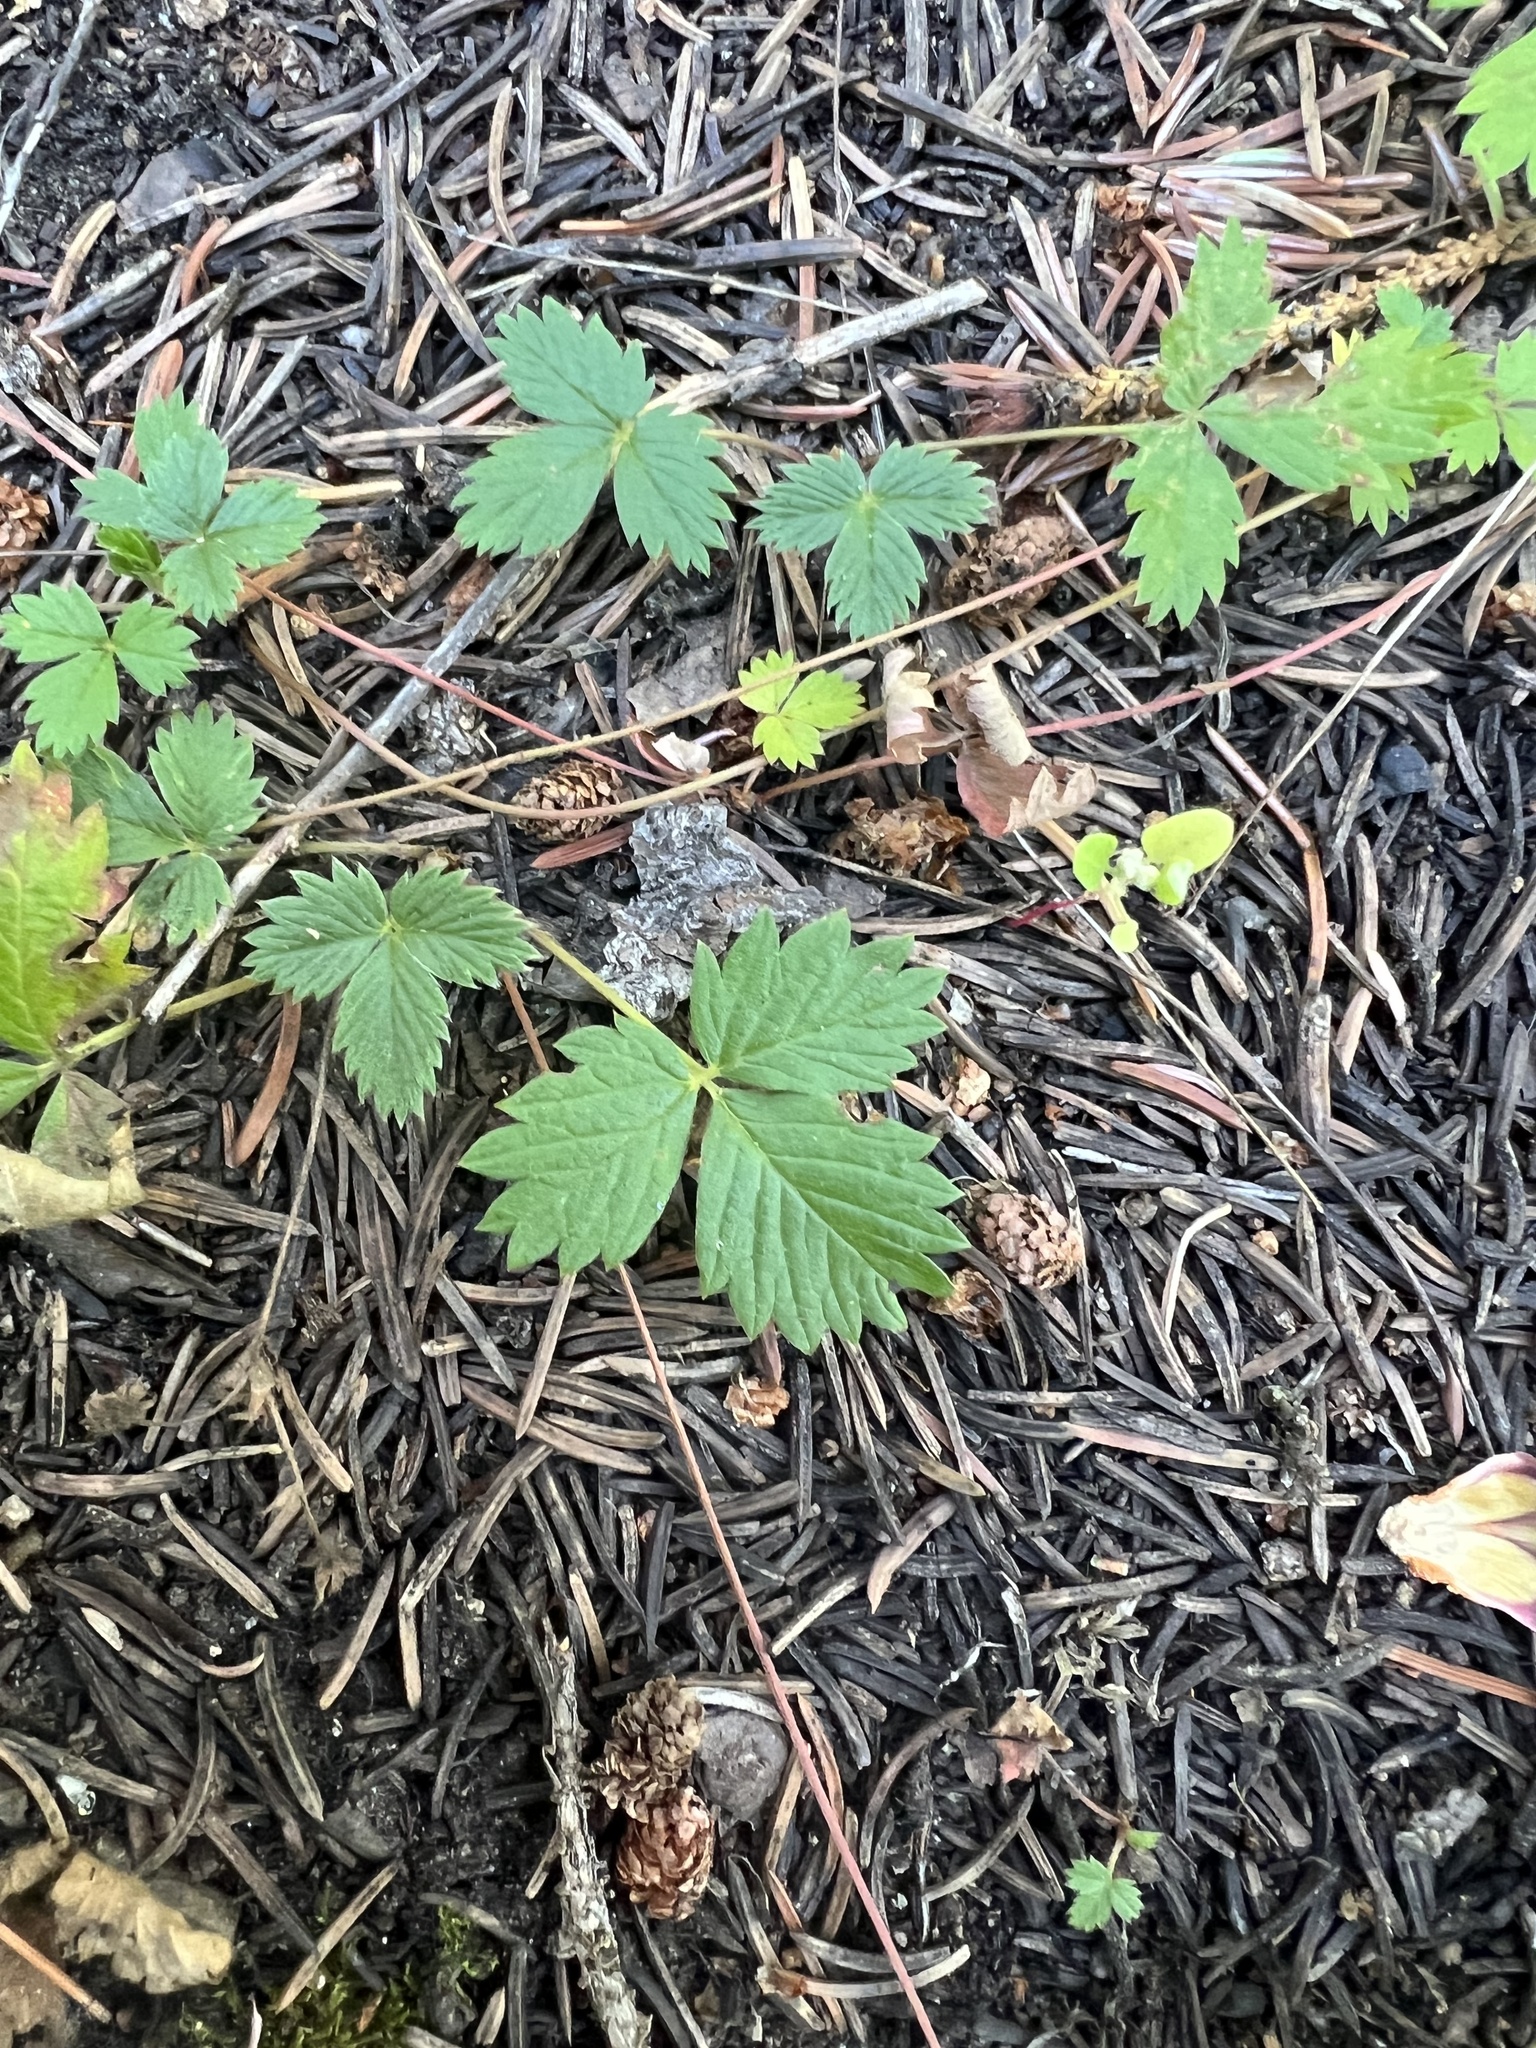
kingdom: Plantae
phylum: Tracheophyta
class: Magnoliopsida
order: Rosales
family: Rosaceae
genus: Fragaria
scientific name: Fragaria vesca
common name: Wild strawberry
